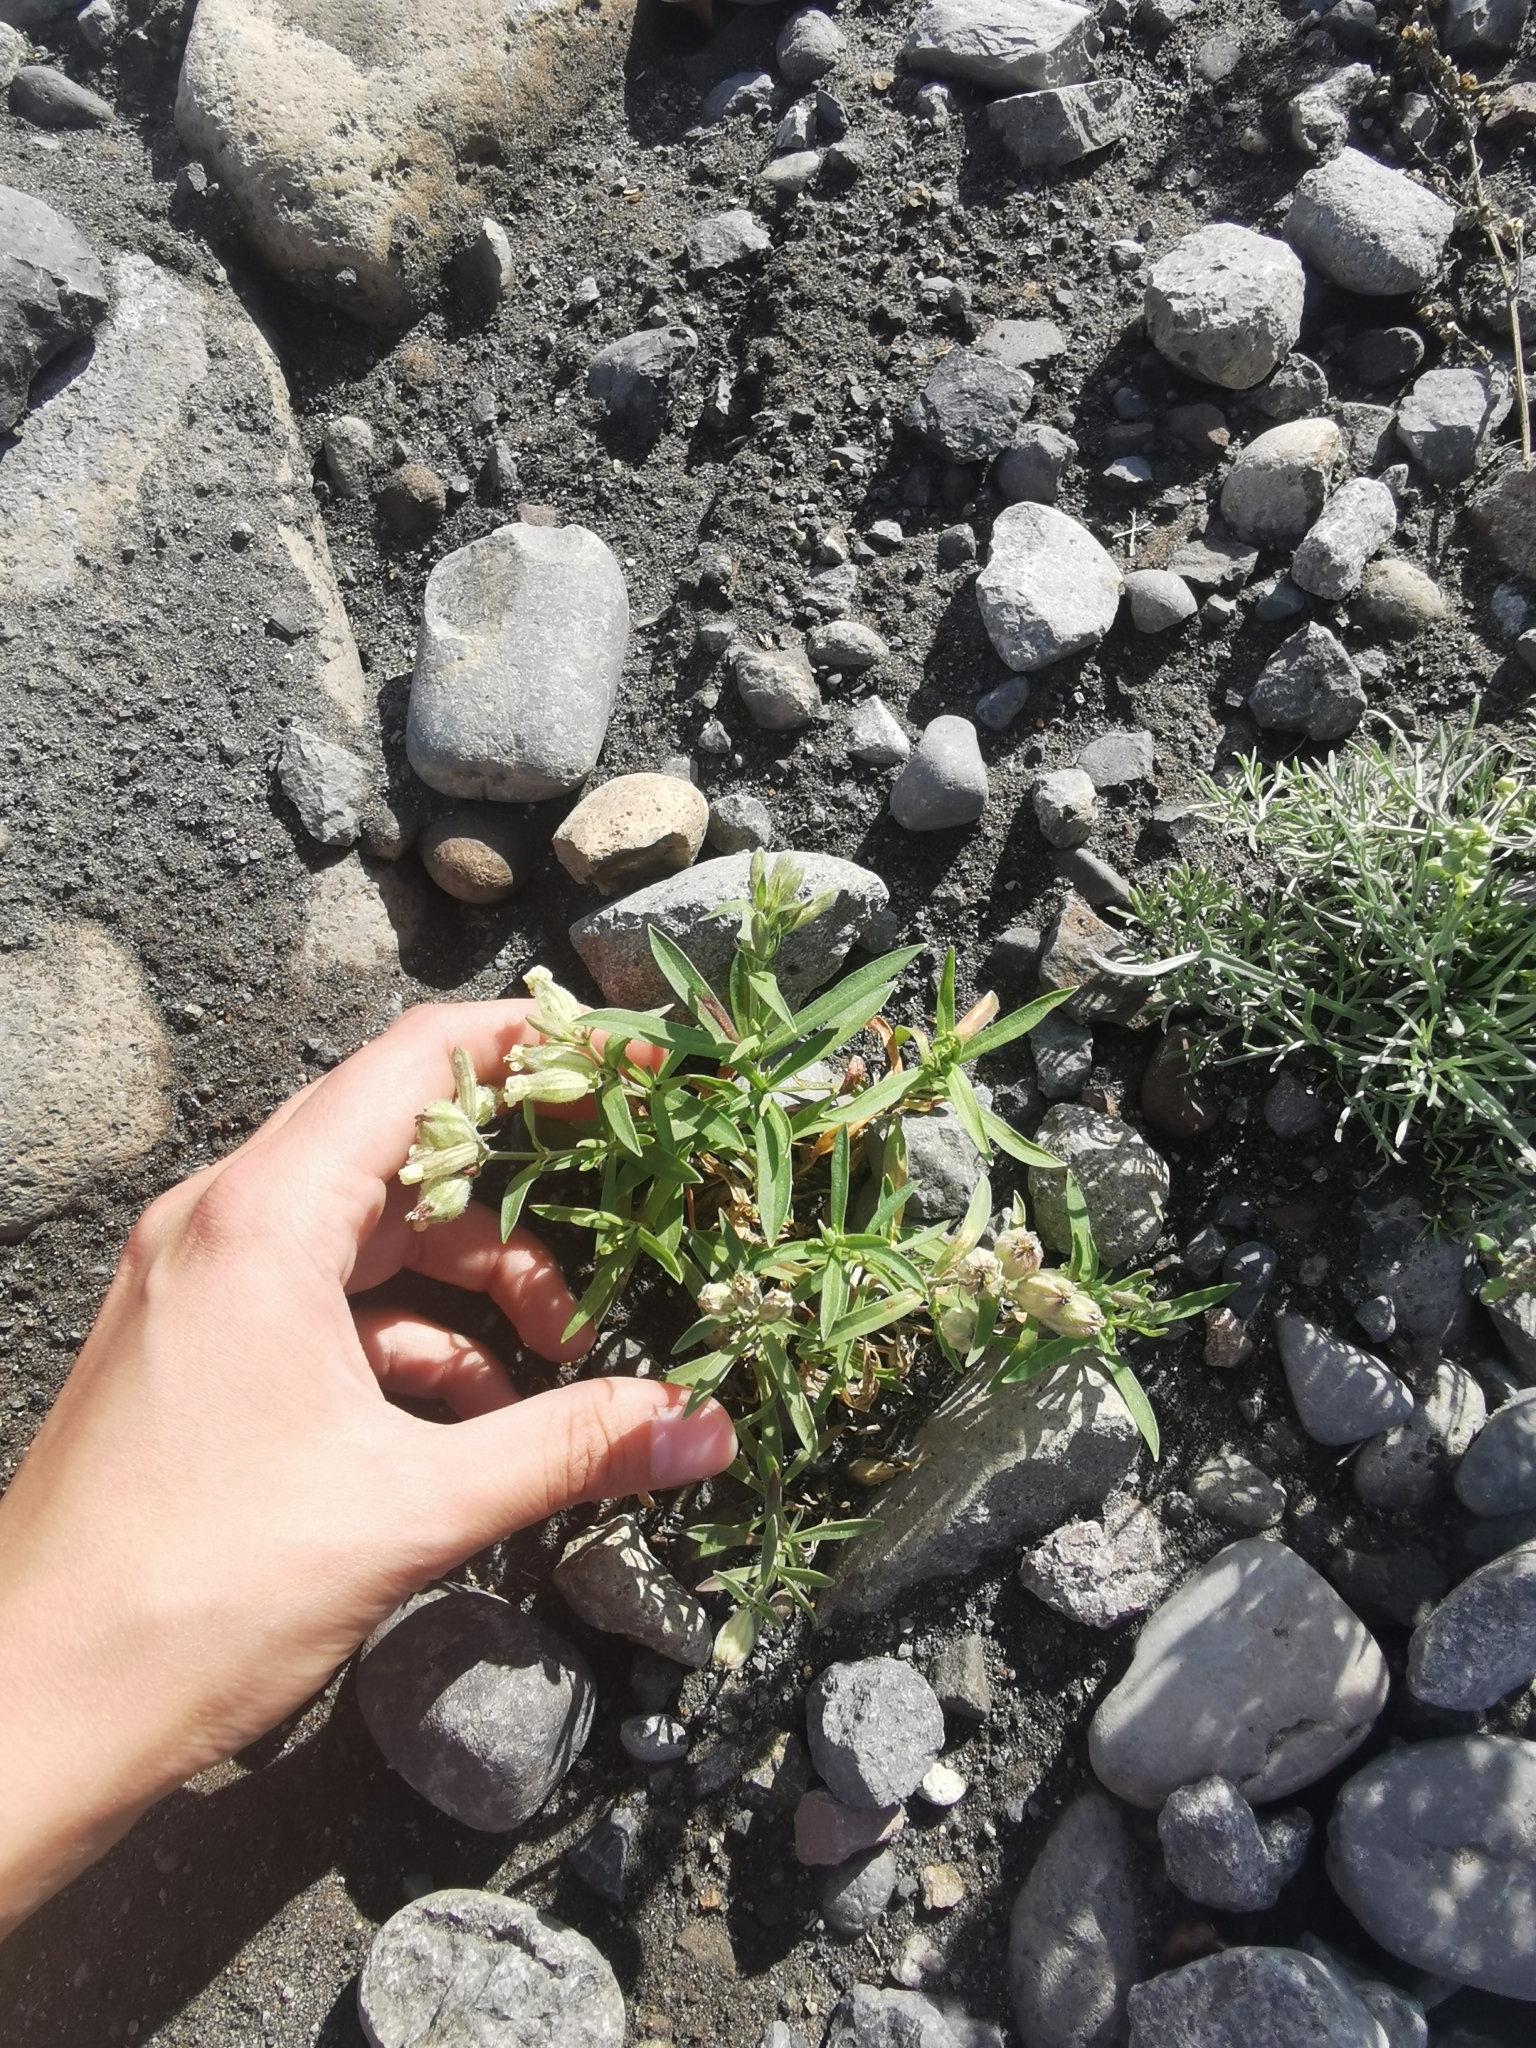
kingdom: Plantae
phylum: Tracheophyta
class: Magnoliopsida
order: Caryophyllales
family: Caryophyllaceae
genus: Silene
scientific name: Silene amoena
